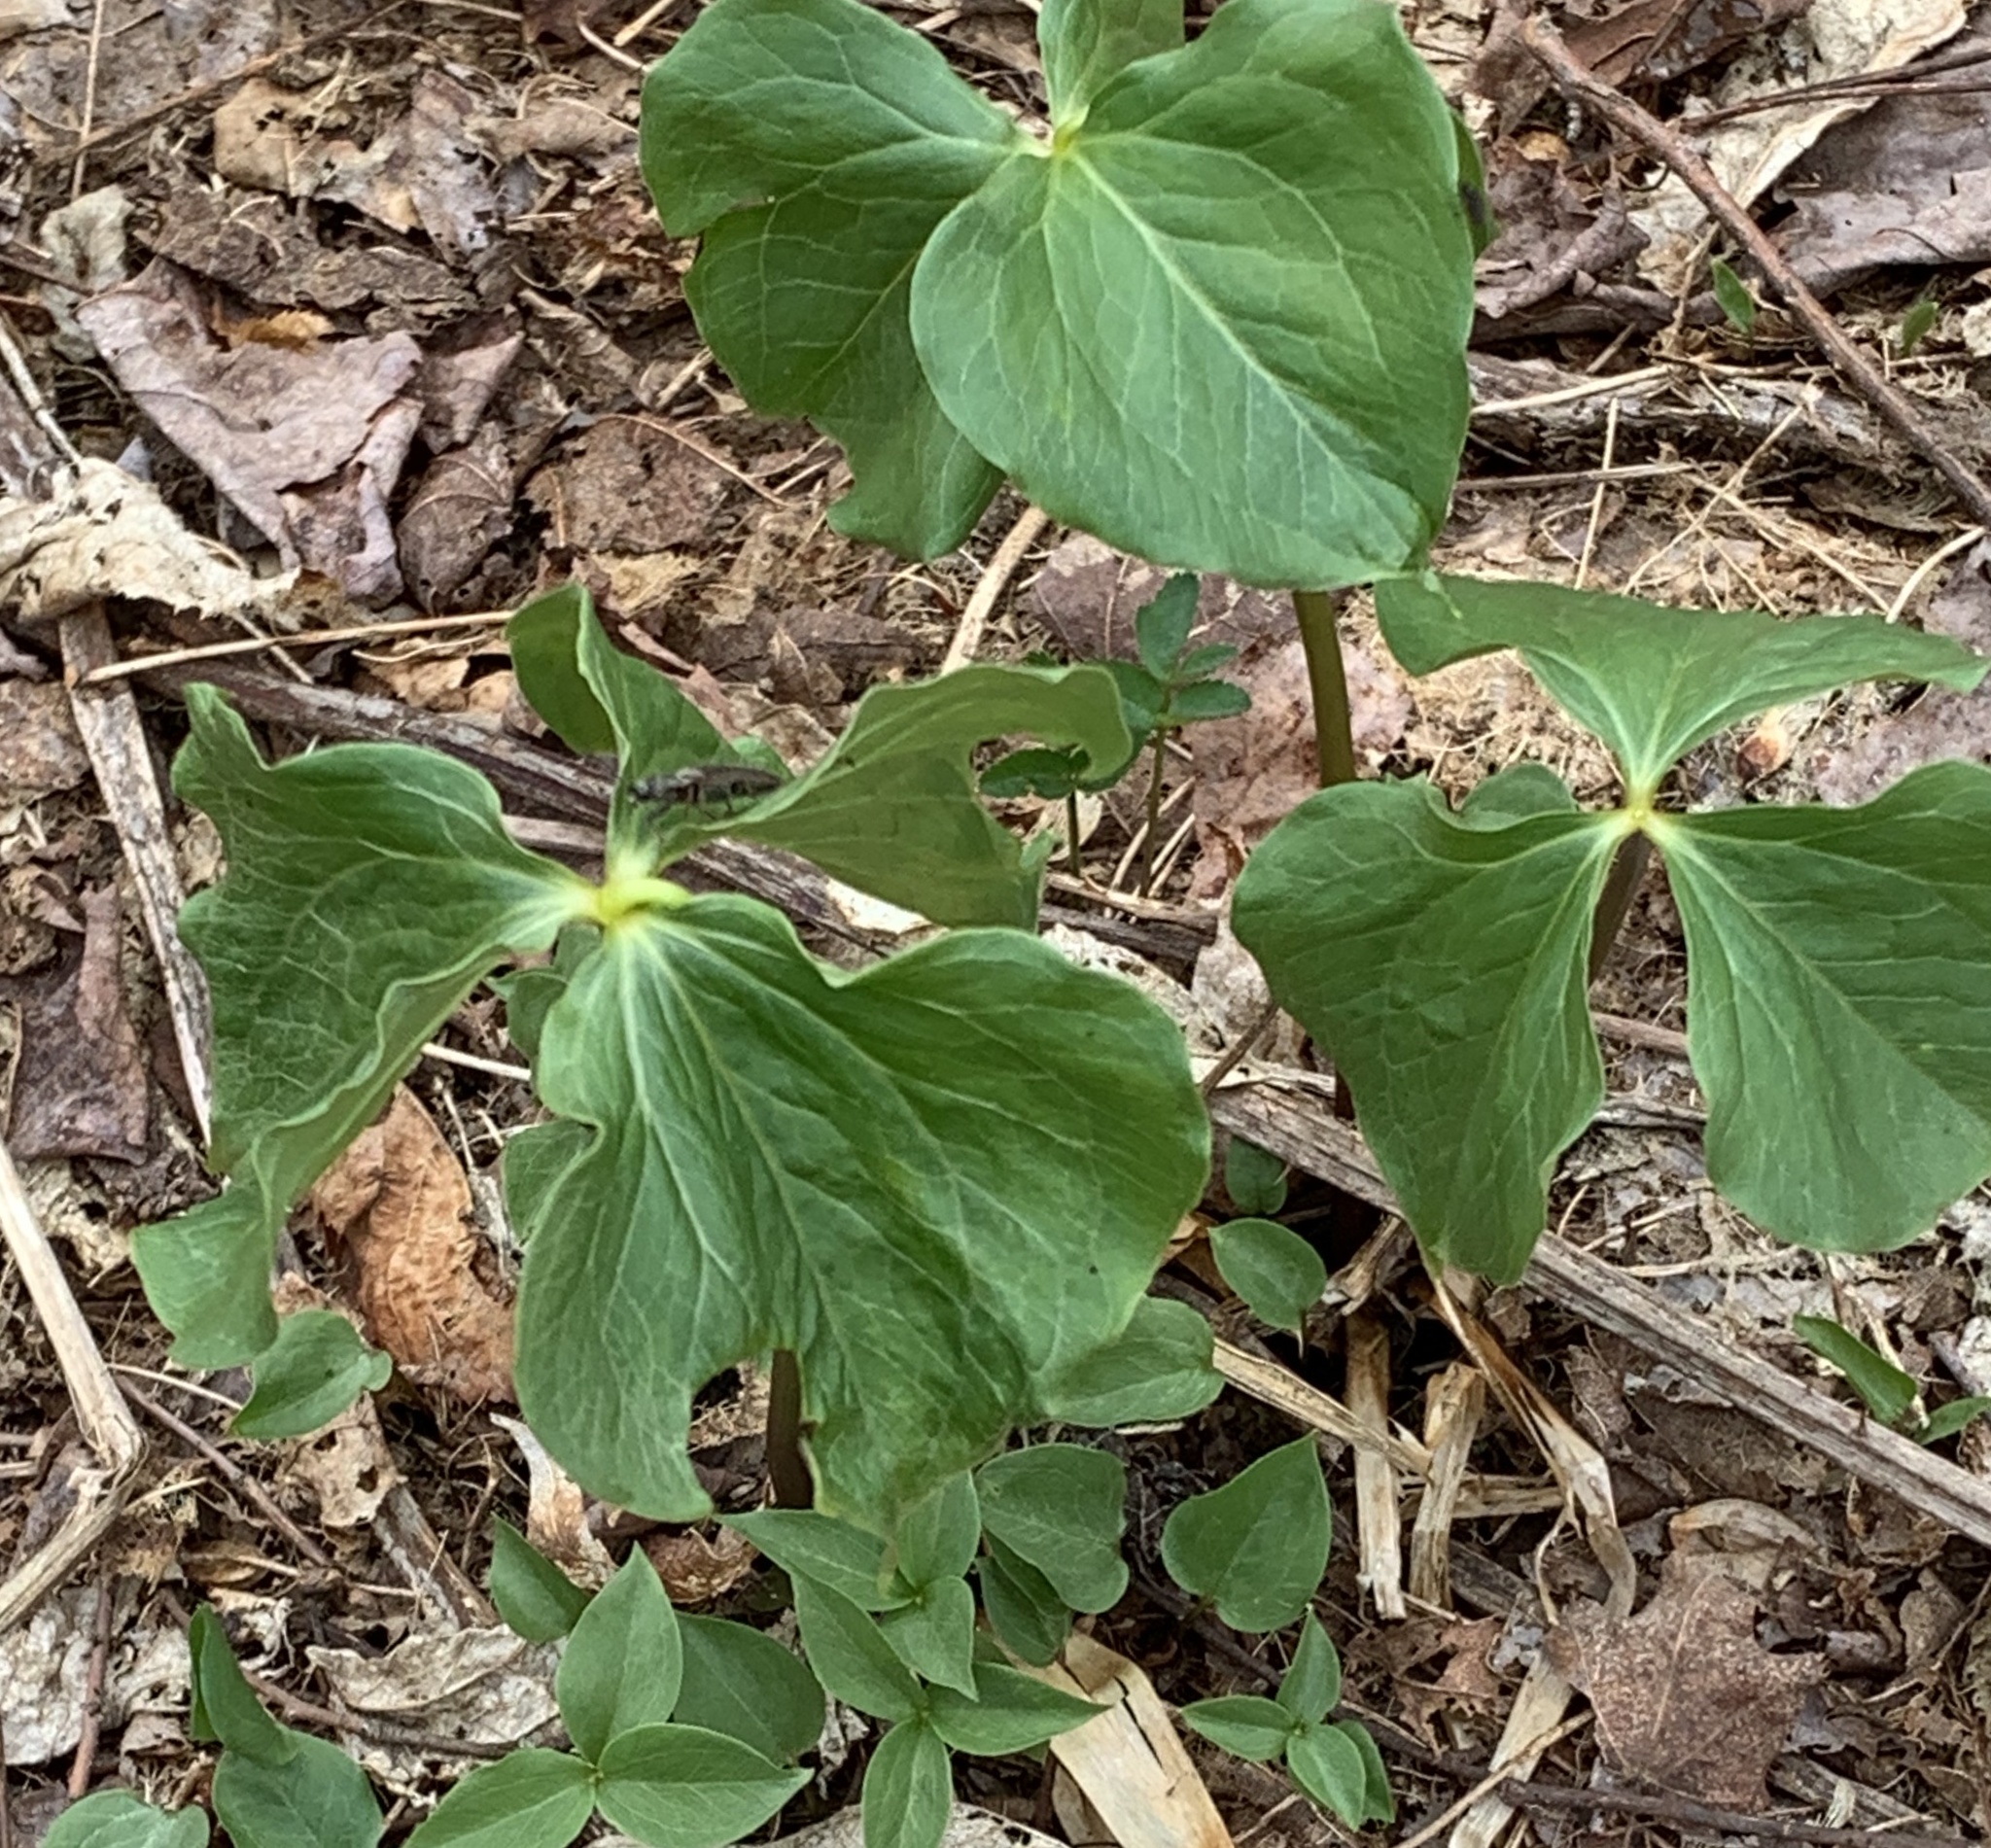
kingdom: Plantae
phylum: Tracheophyta
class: Liliopsida
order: Liliales
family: Melanthiaceae
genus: Trillium
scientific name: Trillium cernuum
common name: Nodding trillium
